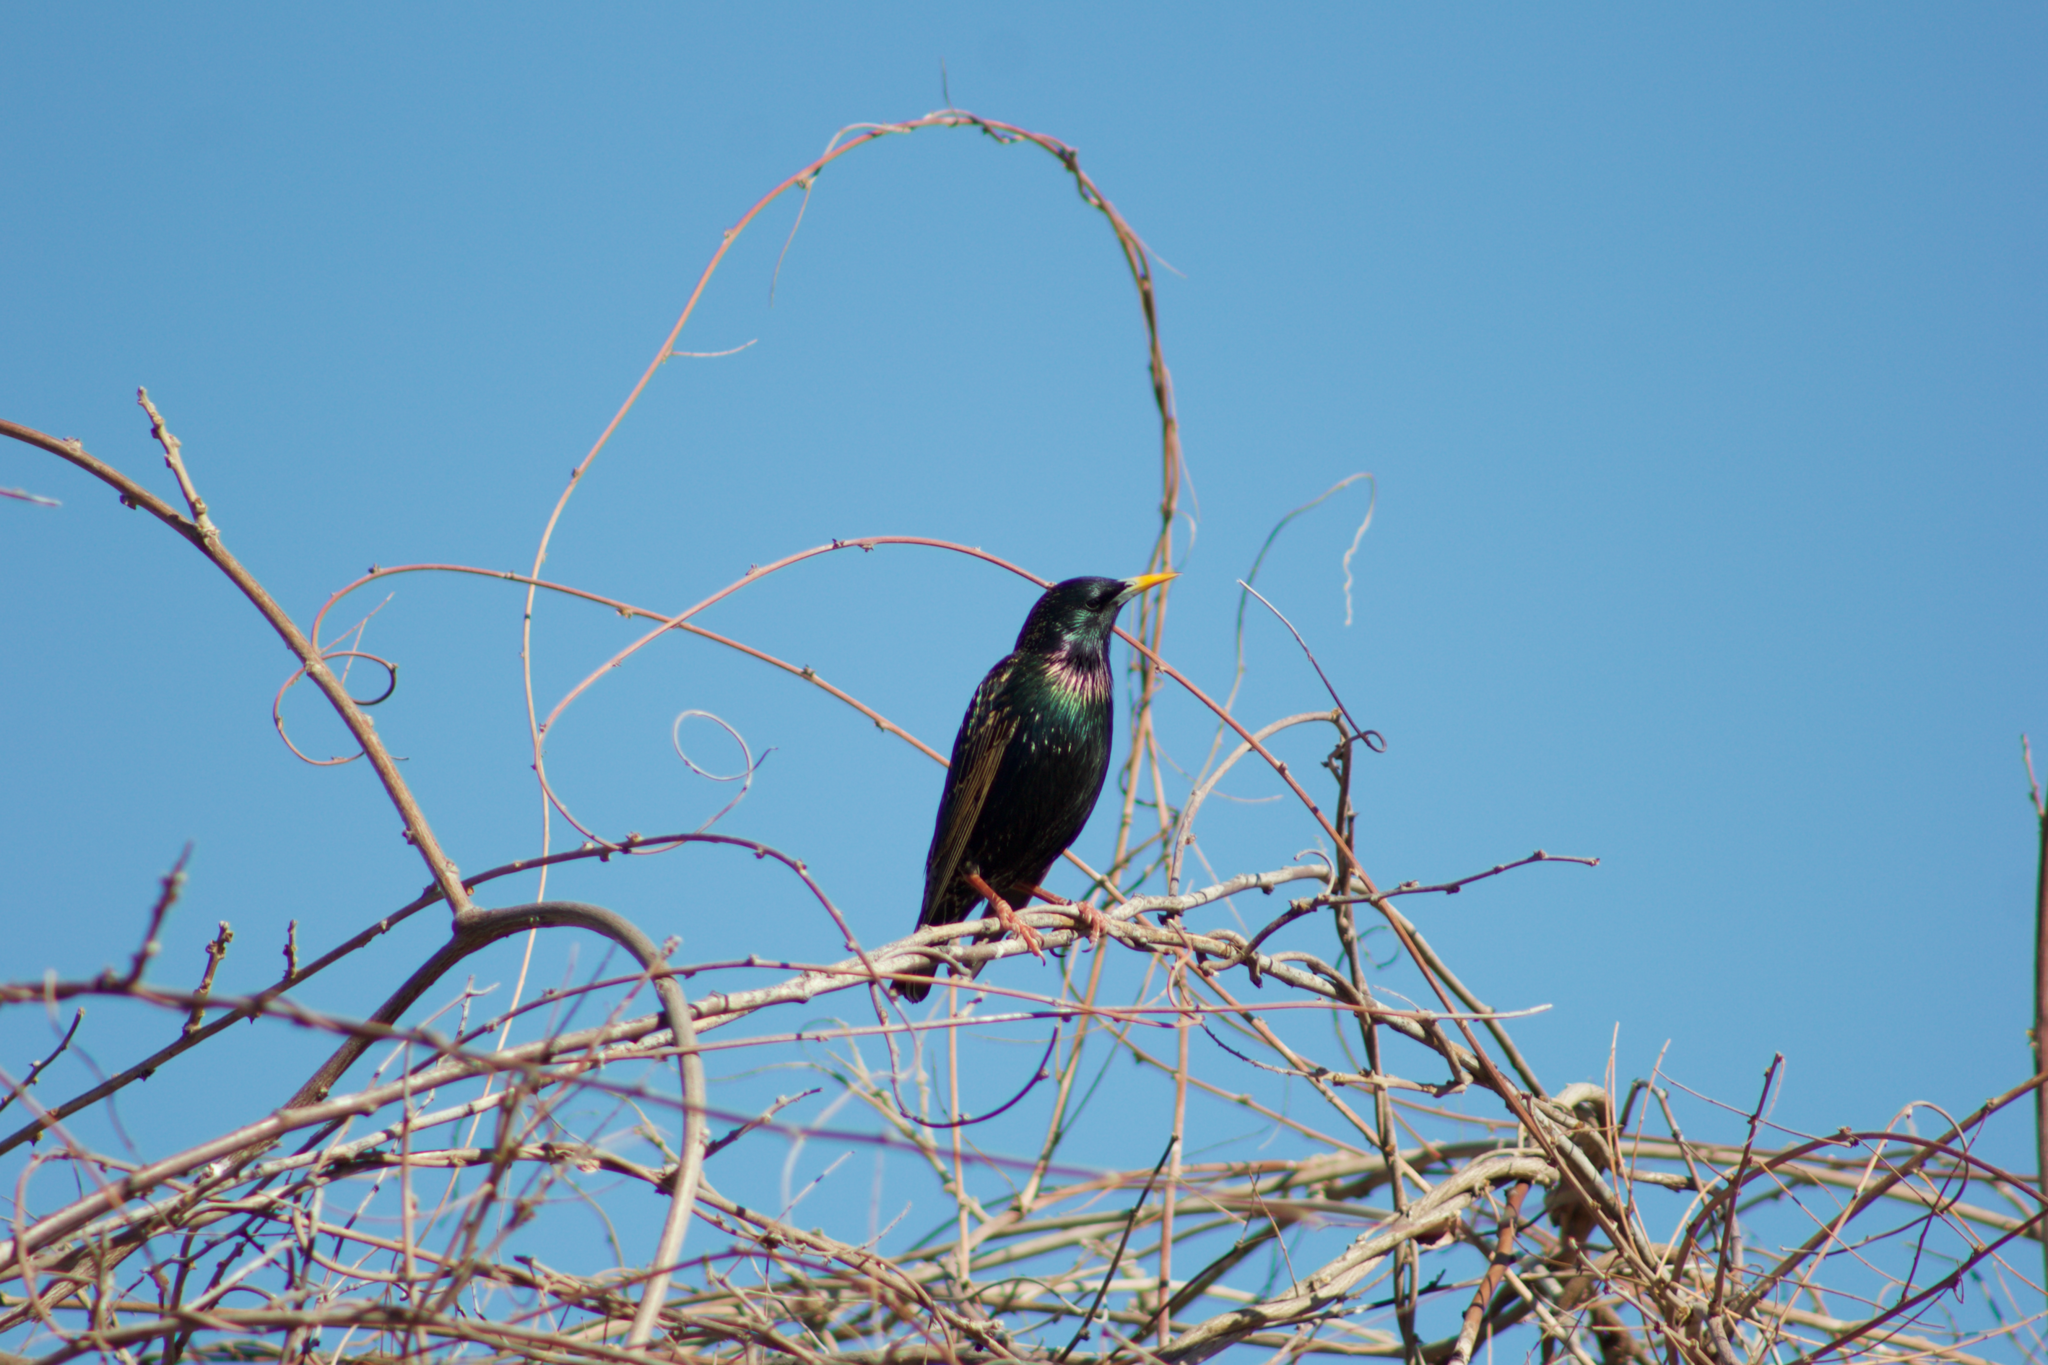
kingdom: Animalia
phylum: Chordata
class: Aves
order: Passeriformes
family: Sturnidae
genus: Sturnus
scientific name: Sturnus vulgaris
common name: Common starling
